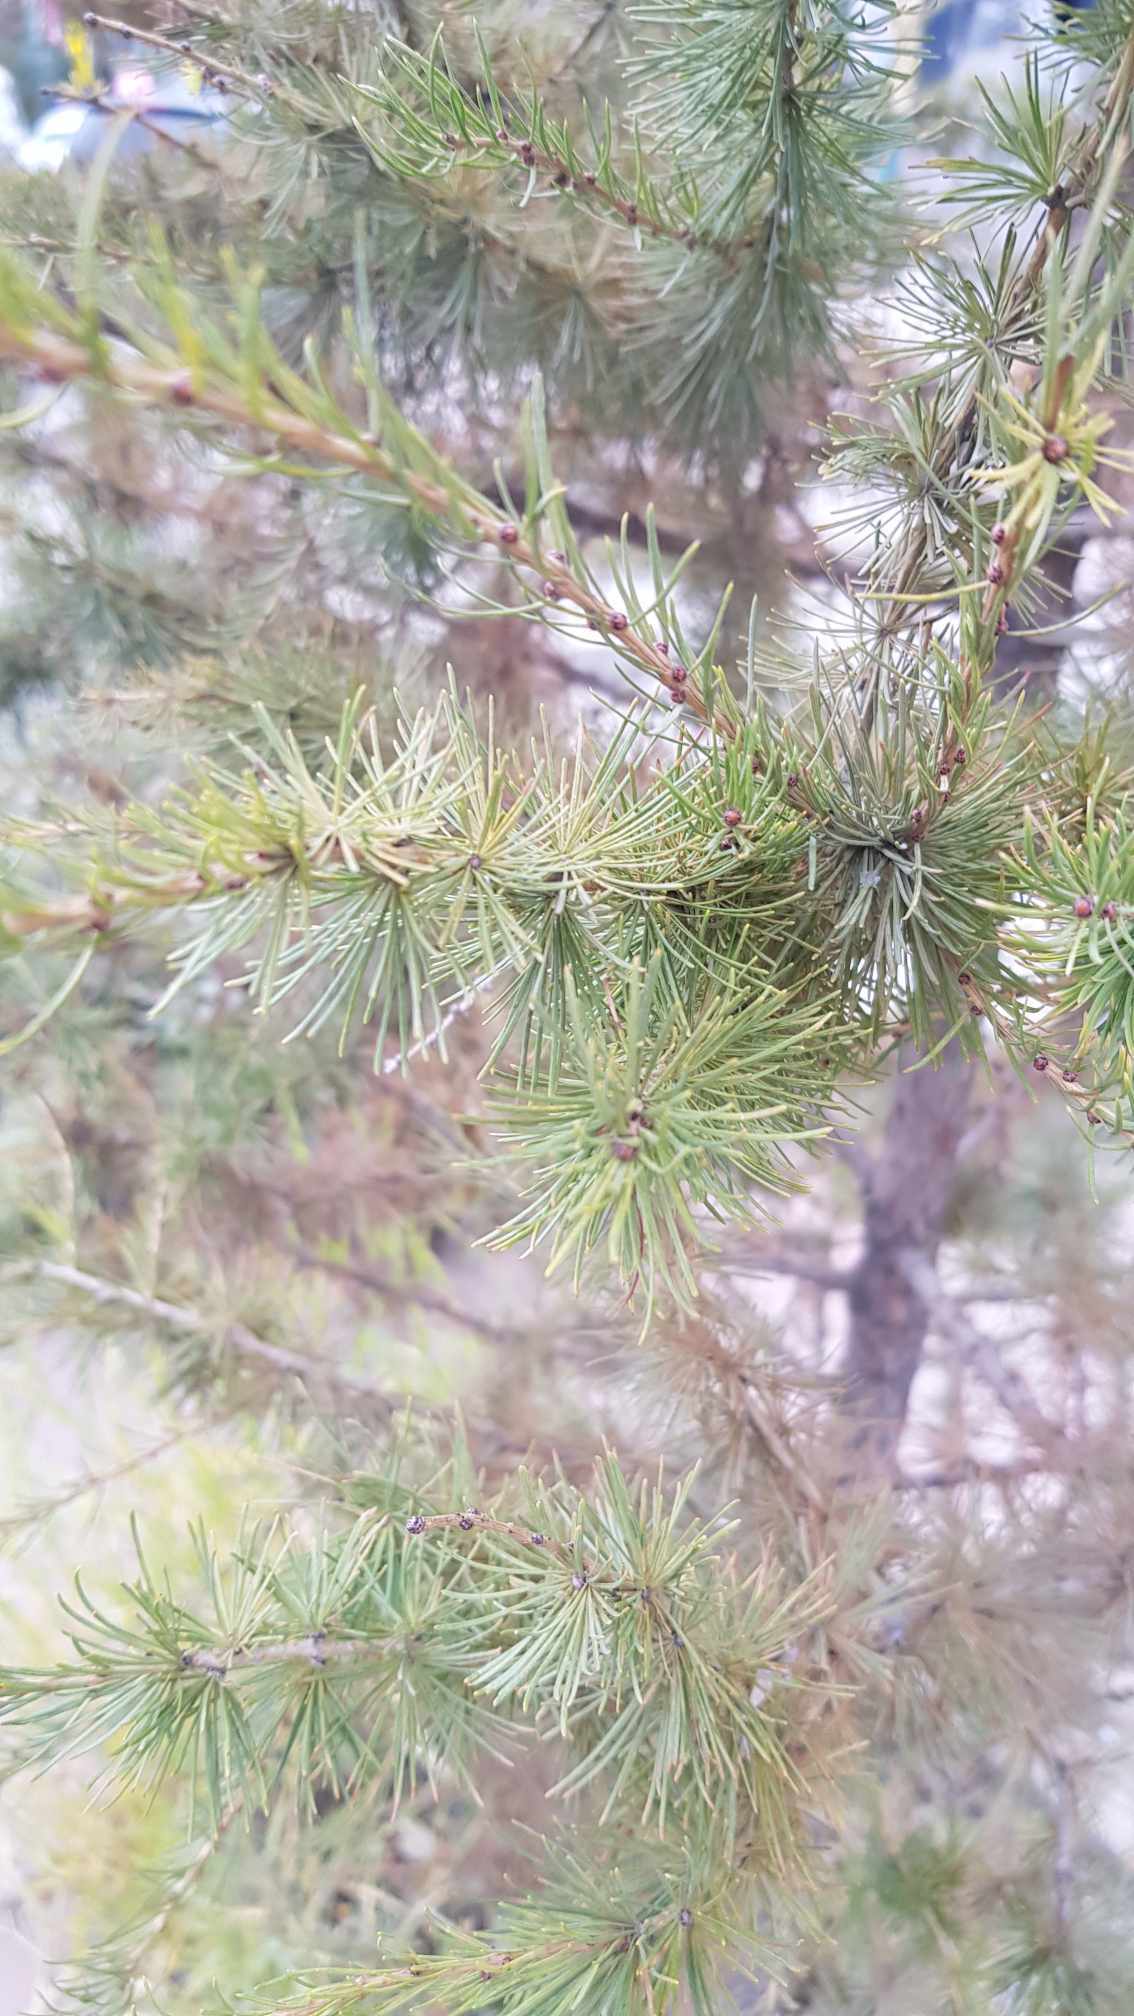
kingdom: Plantae
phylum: Tracheophyta
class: Pinopsida
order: Pinales
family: Pinaceae
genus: Larix
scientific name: Larix sibirica
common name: Siberian larch
